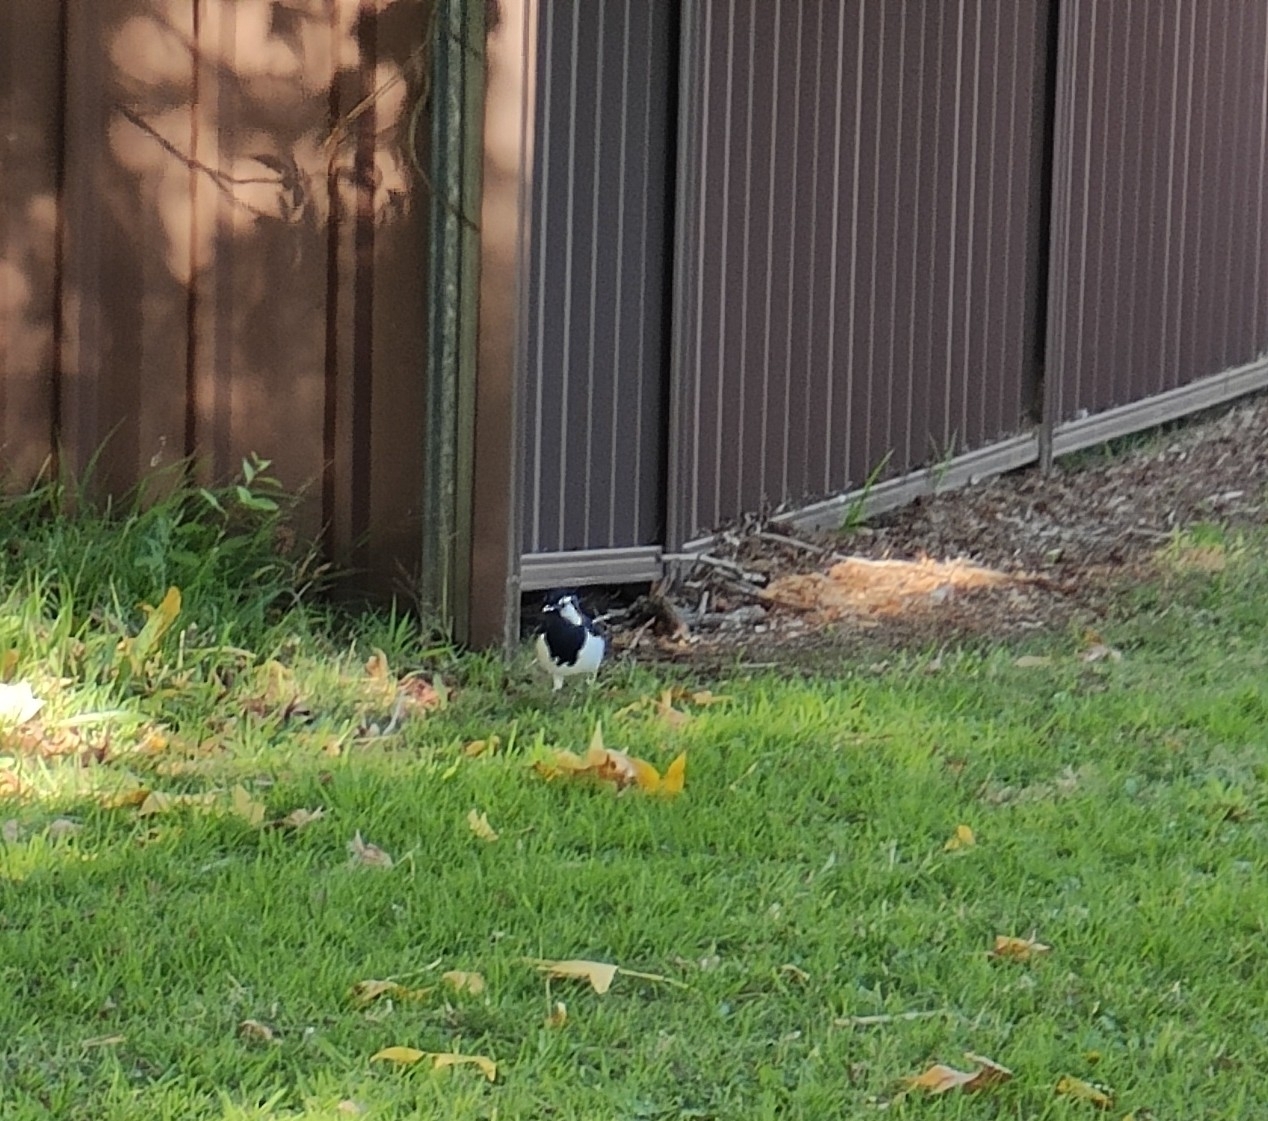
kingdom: Animalia
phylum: Chordata
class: Aves
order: Passeriformes
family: Monarchidae
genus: Grallina
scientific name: Grallina cyanoleuca
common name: Magpie-lark
